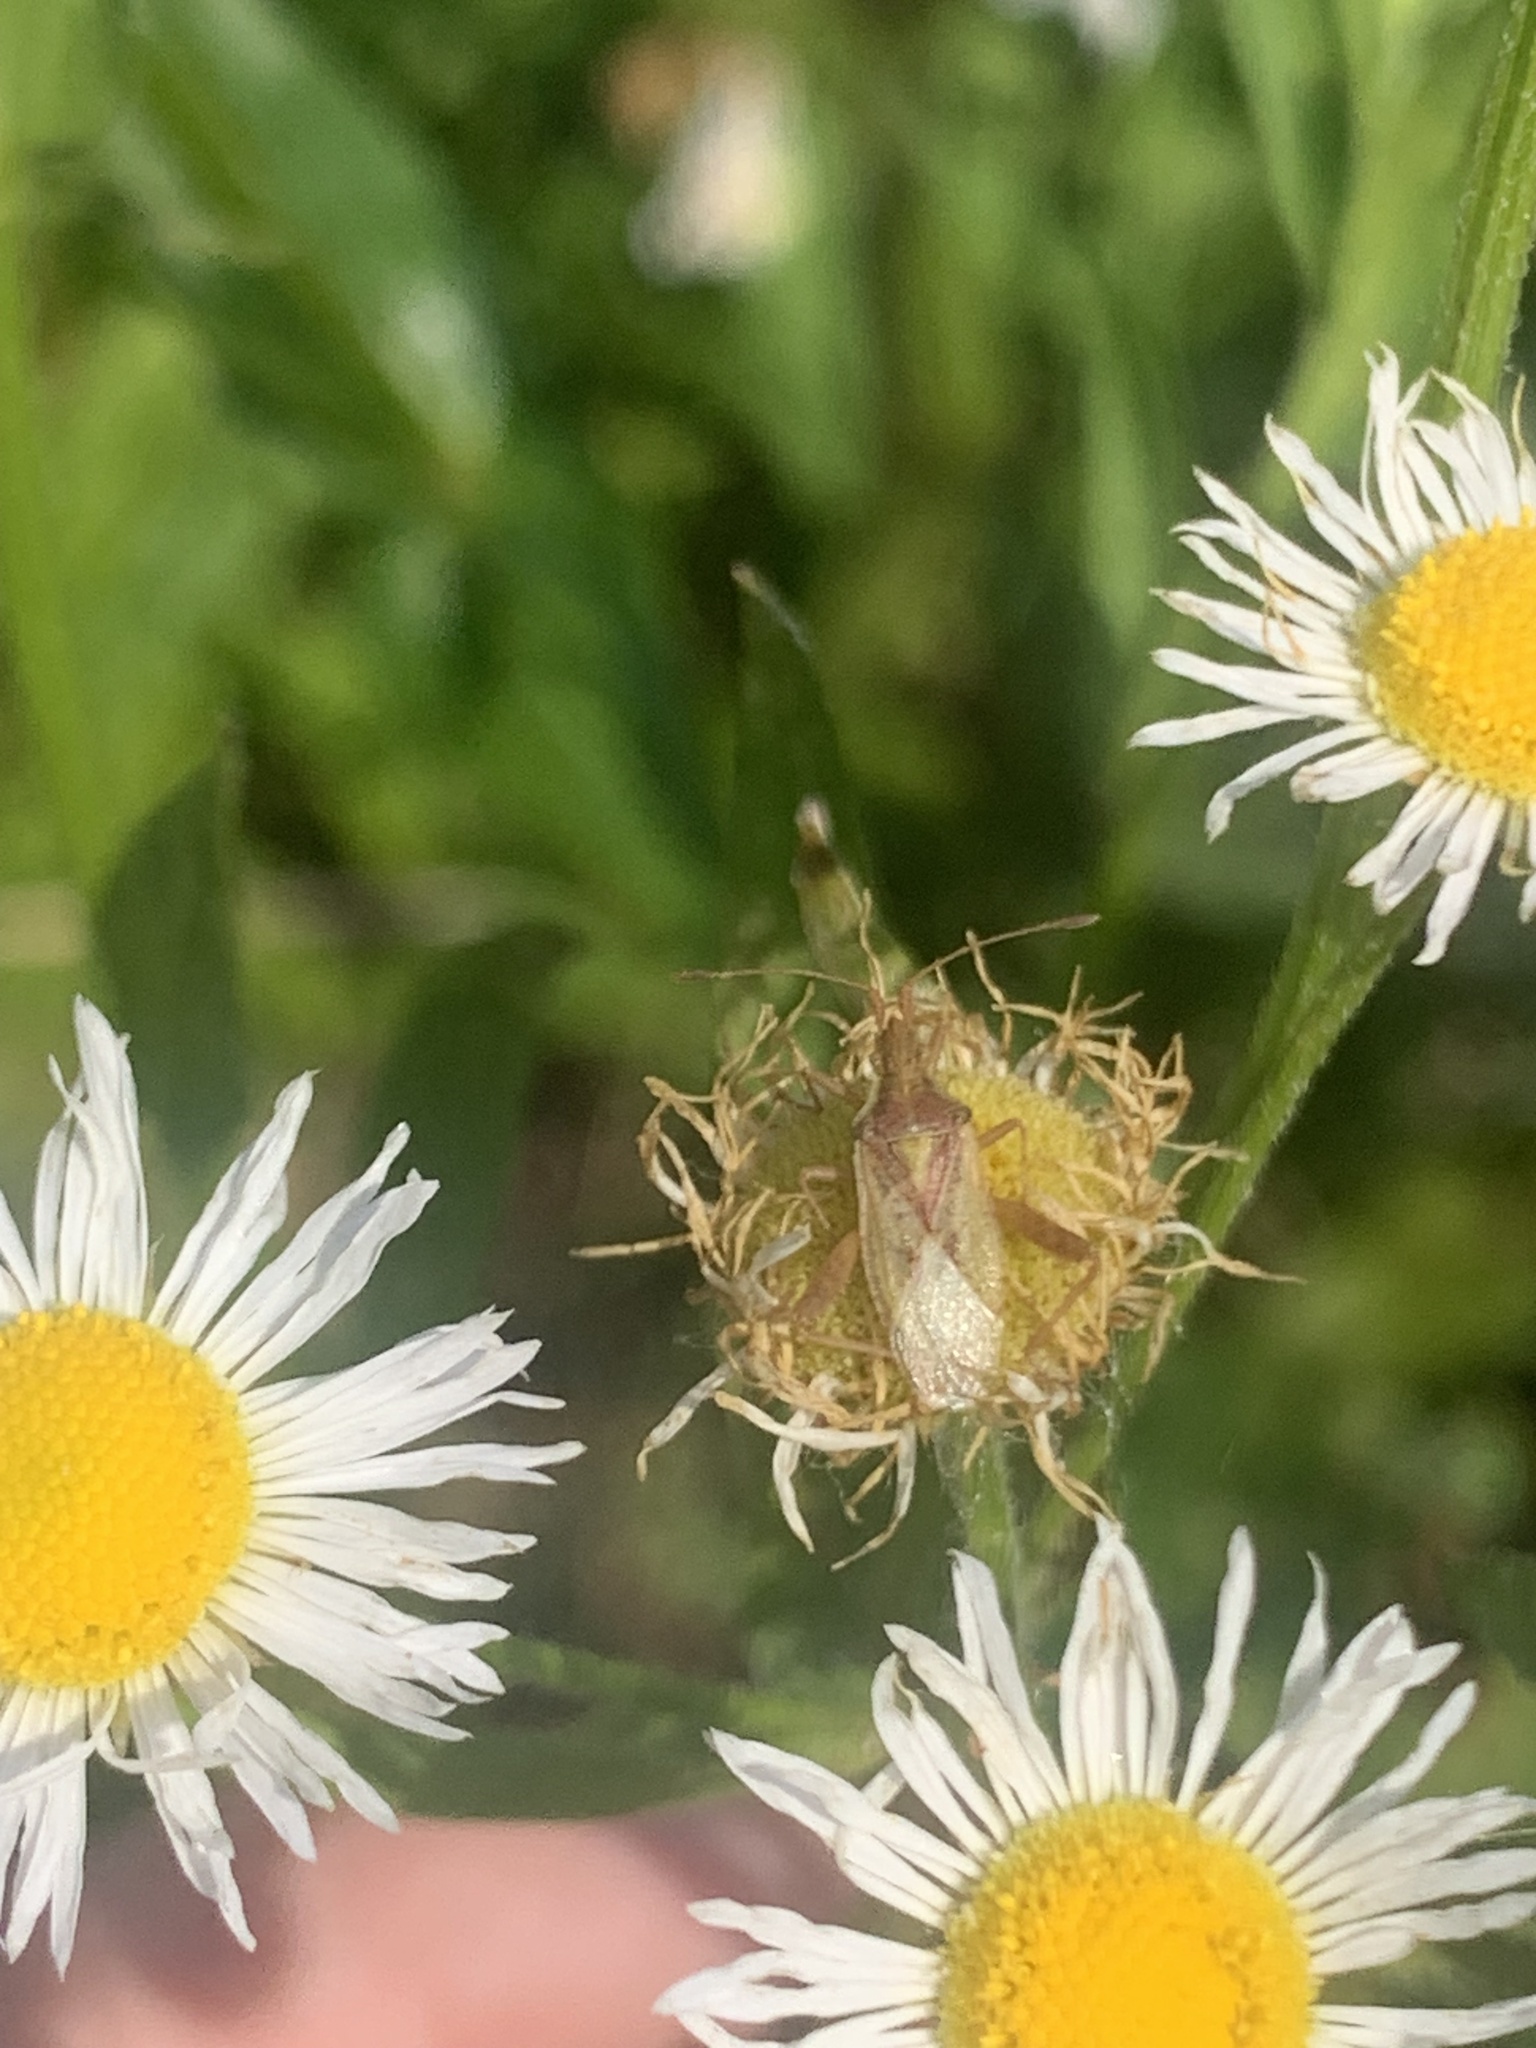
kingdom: Animalia
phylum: Arthropoda
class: Insecta
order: Hemiptera
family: Rhopalidae
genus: Harmostes
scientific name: Harmostes reflexulus
